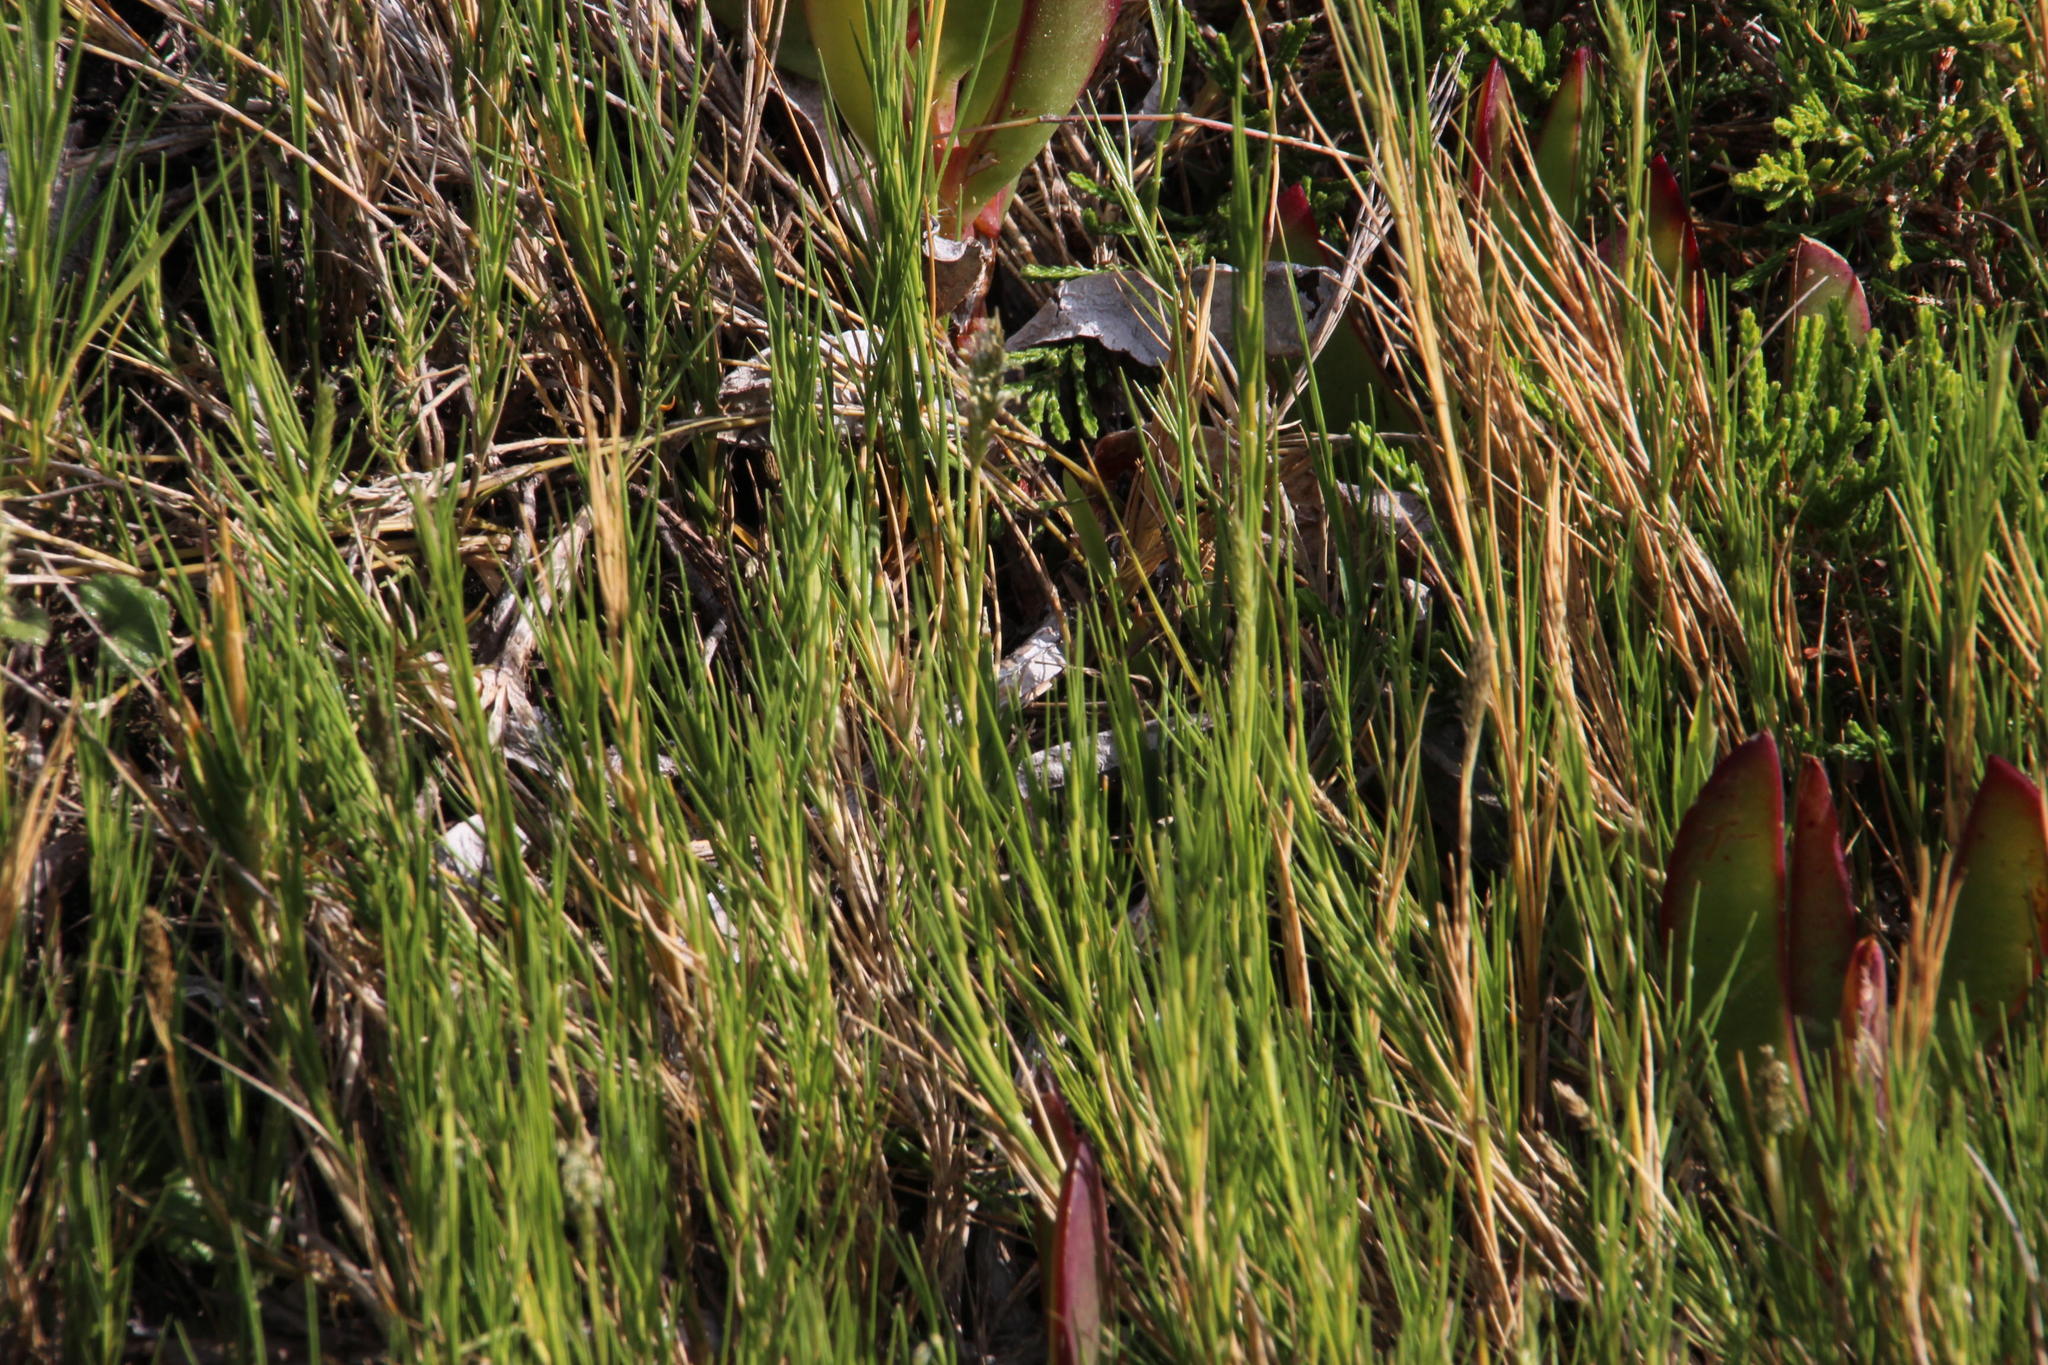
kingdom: Plantae
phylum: Tracheophyta
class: Liliopsida
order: Poales
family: Poaceae
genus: Sporobolus
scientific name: Sporobolus virginicus
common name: Beach dropseed
